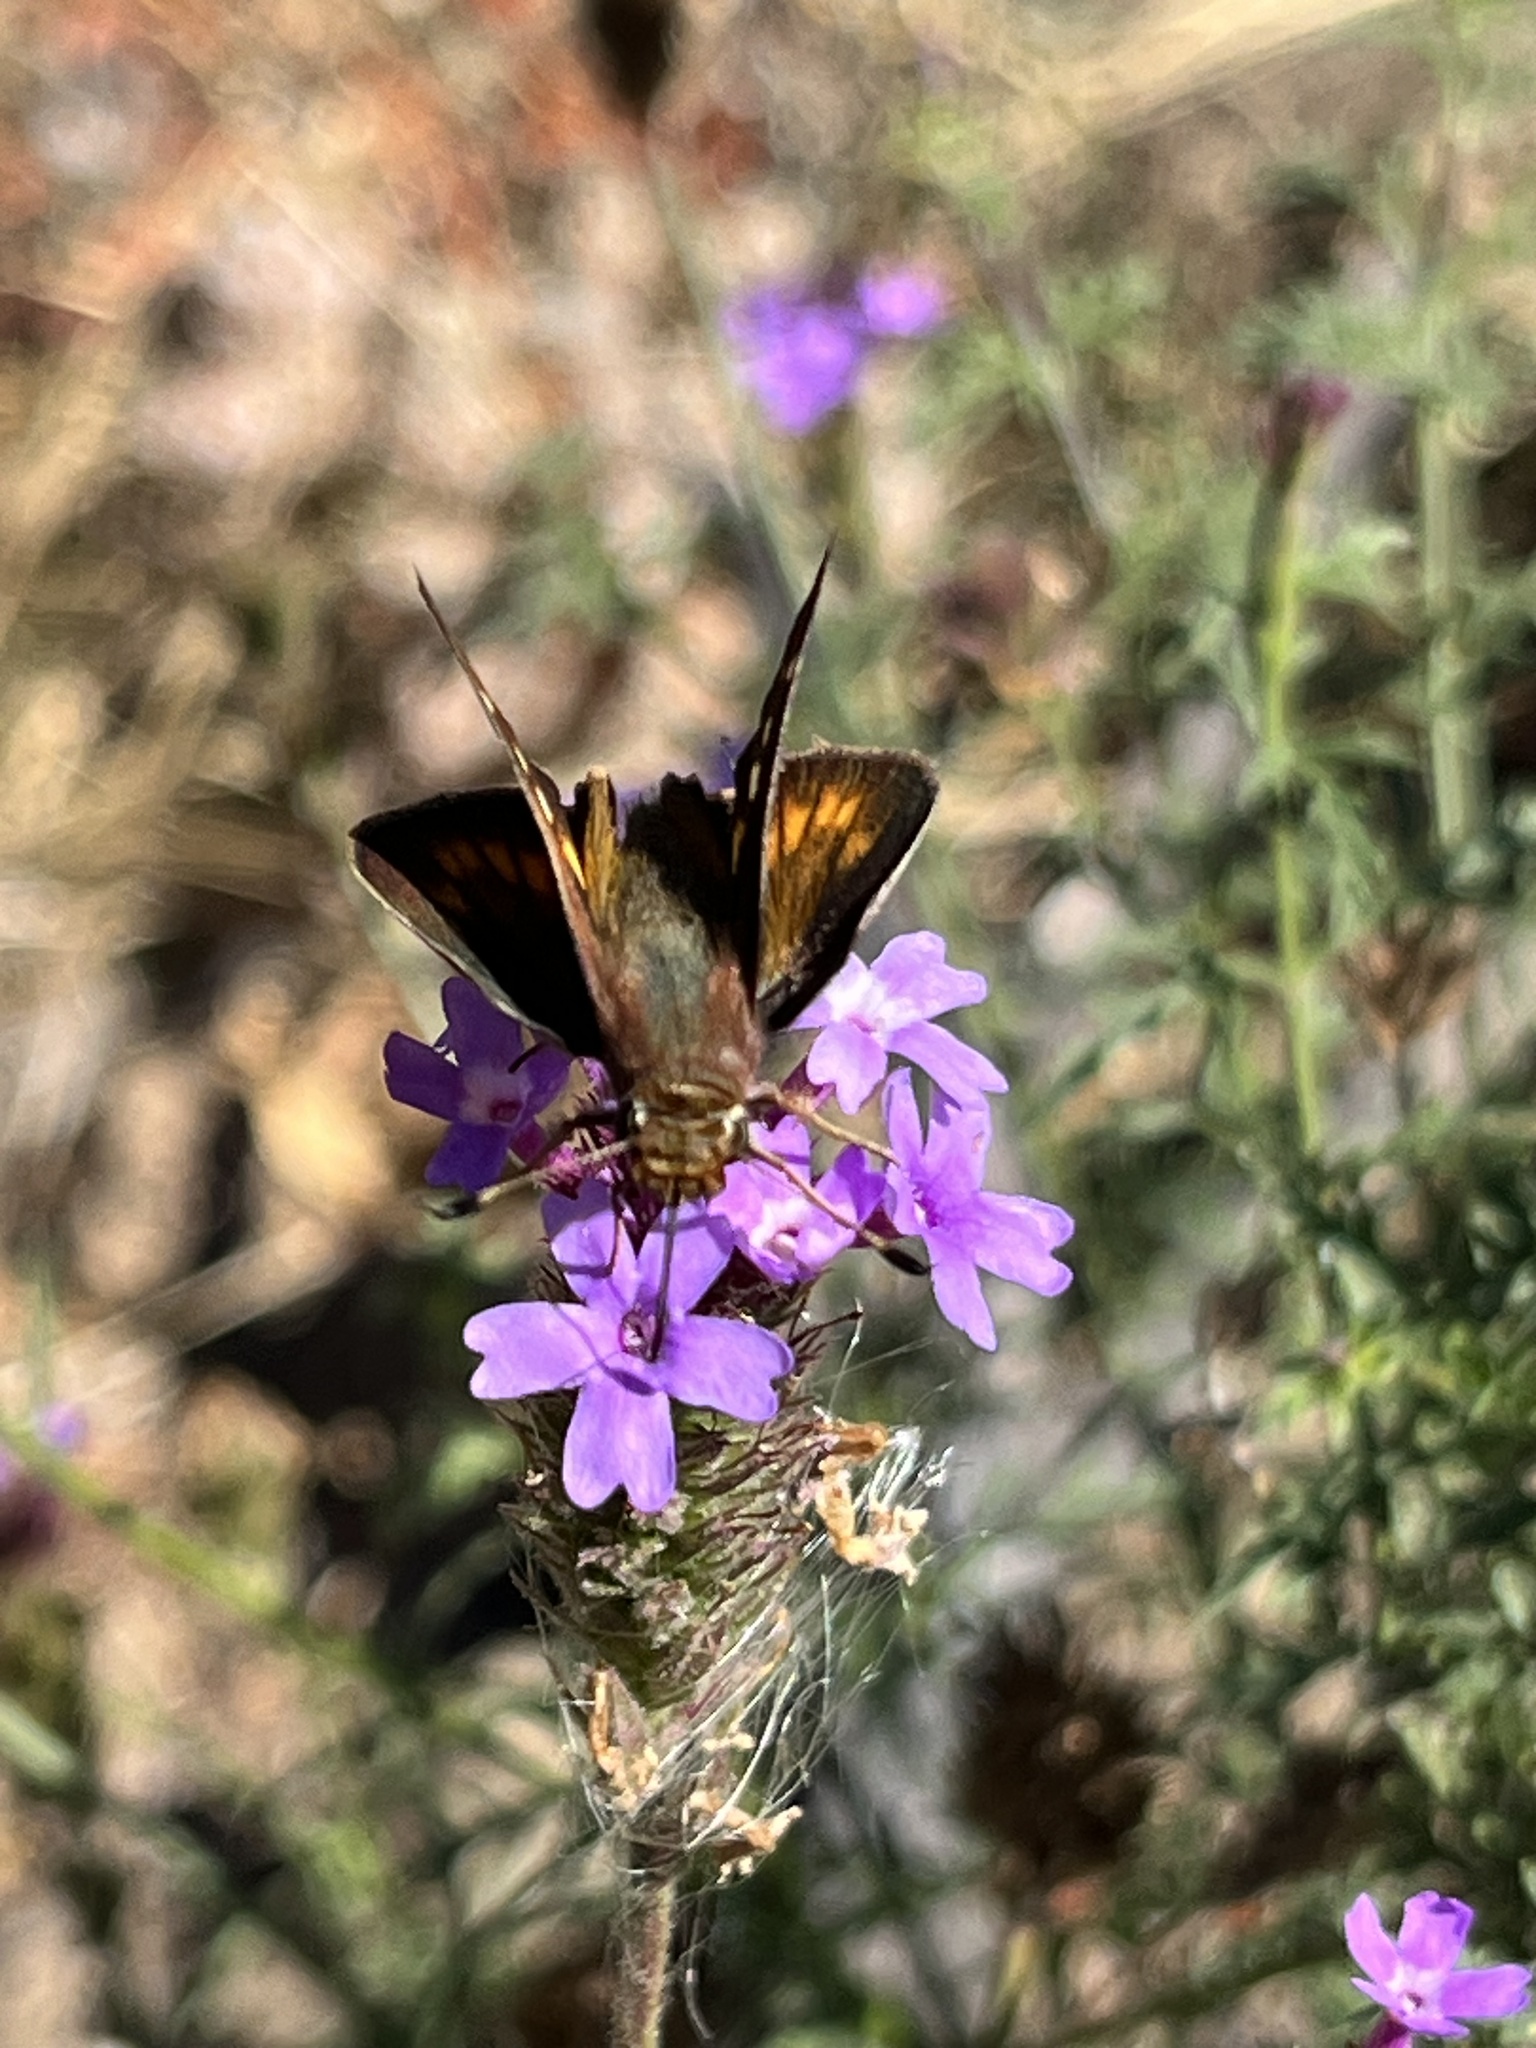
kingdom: Animalia
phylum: Arthropoda
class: Insecta
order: Lepidoptera
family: Hesperiidae
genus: Lon
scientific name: Lon melane
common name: Umber skipper
